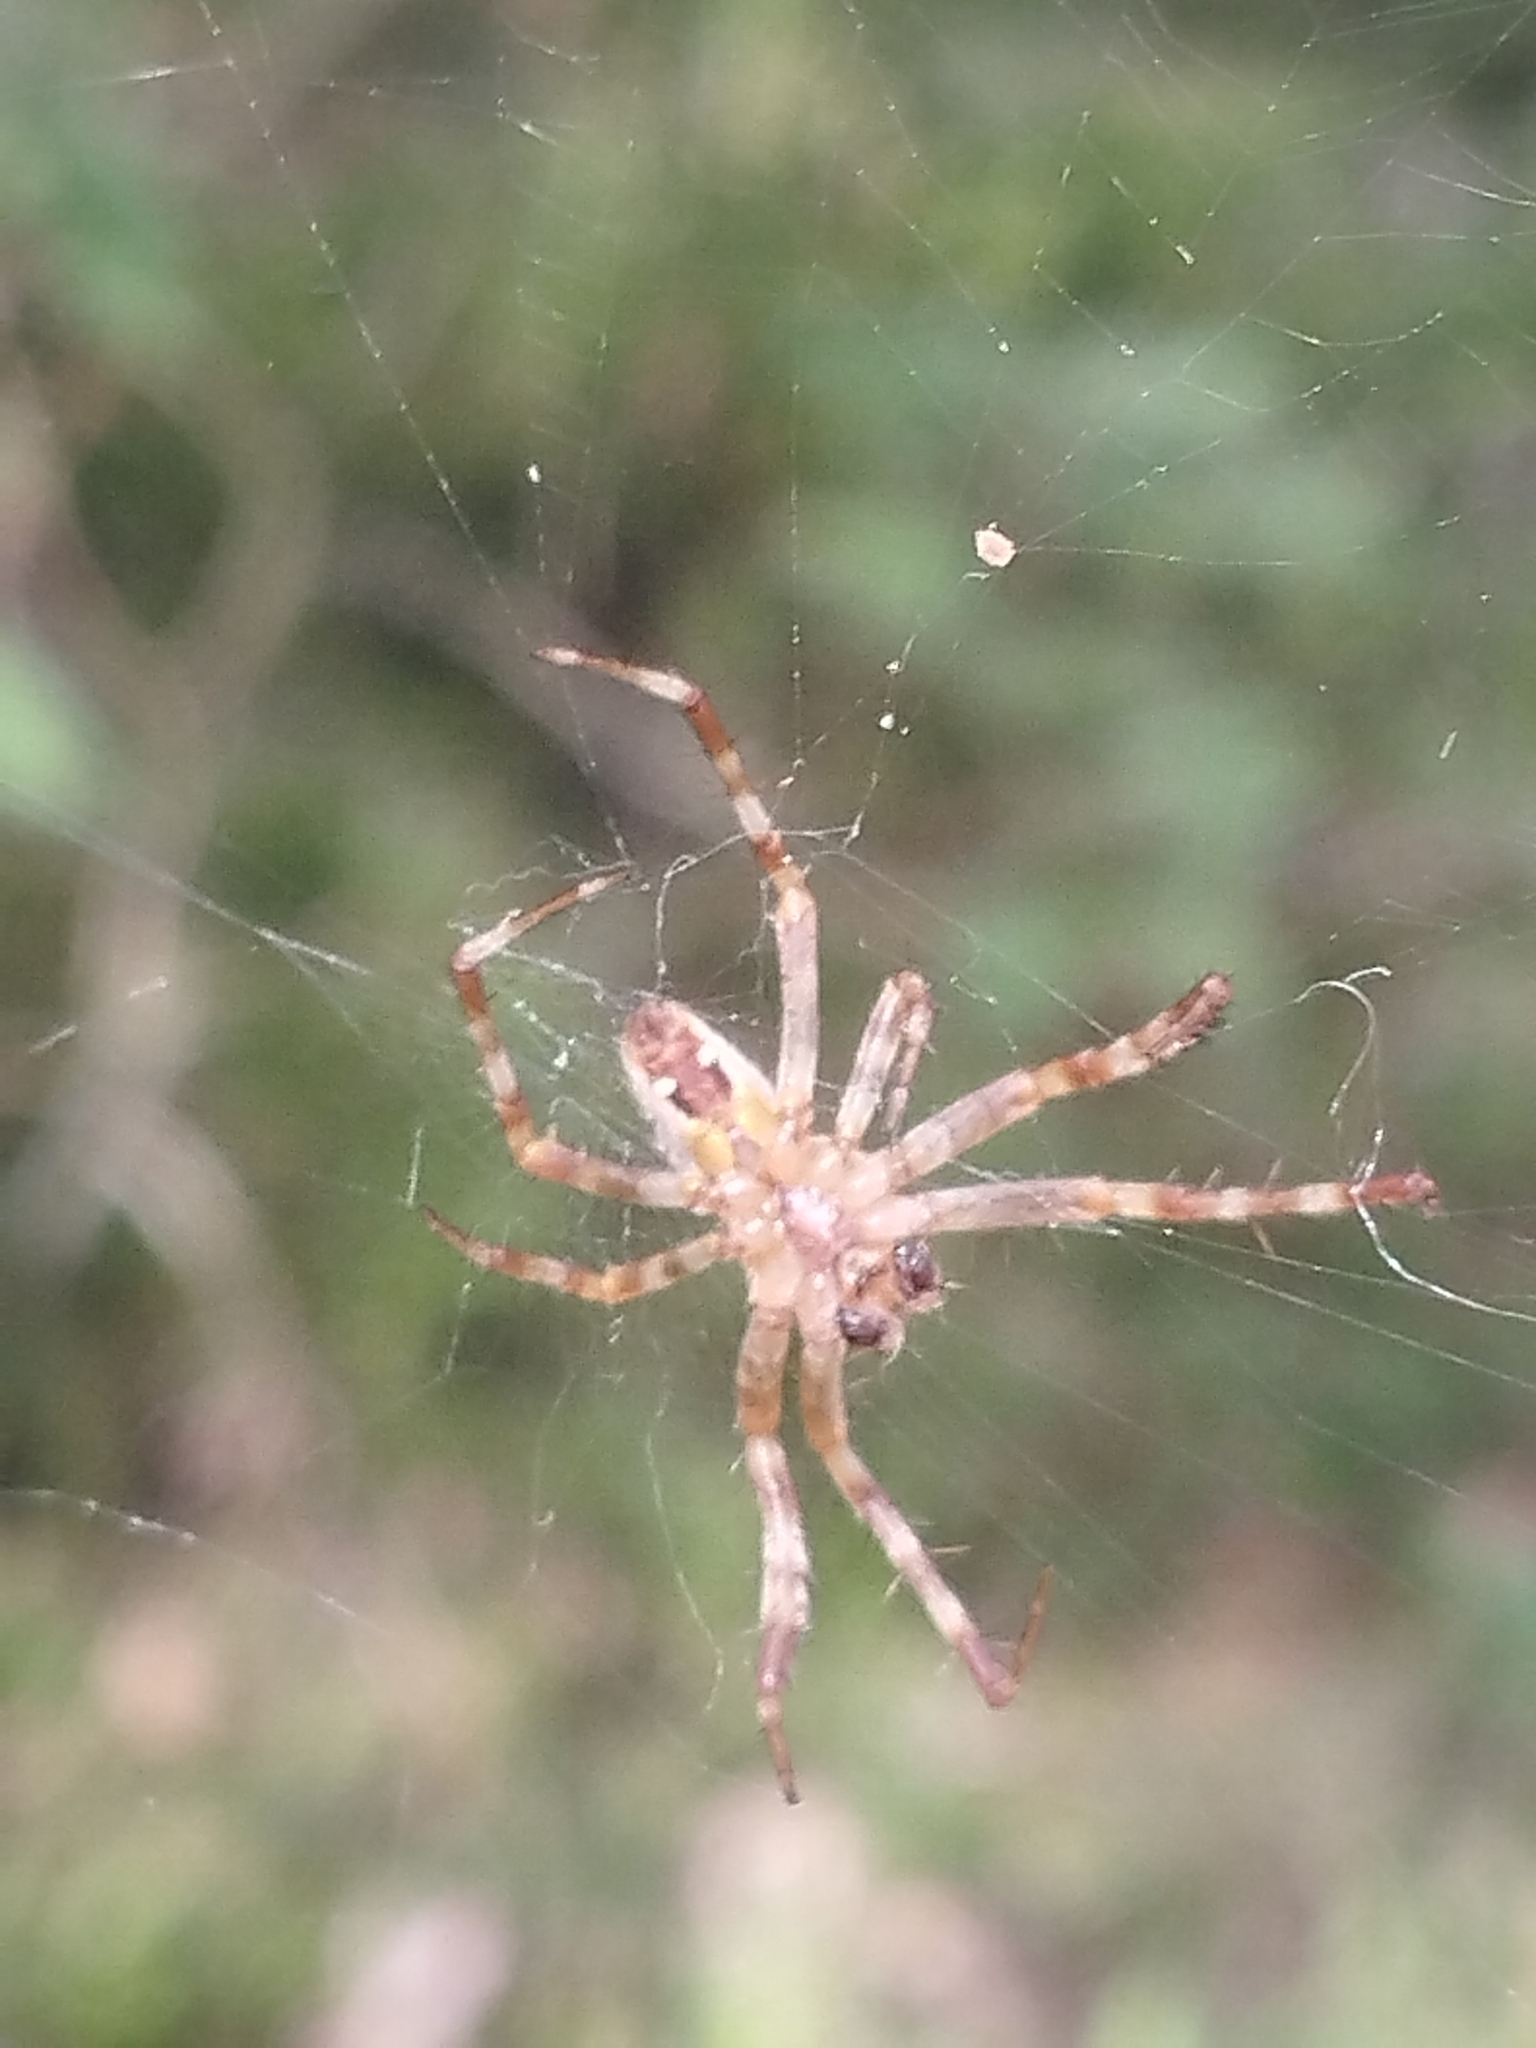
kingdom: Animalia
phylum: Arthropoda
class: Arachnida
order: Araneae
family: Araneidae
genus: Araneus
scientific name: Araneus diadematus
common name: Cross orbweaver
